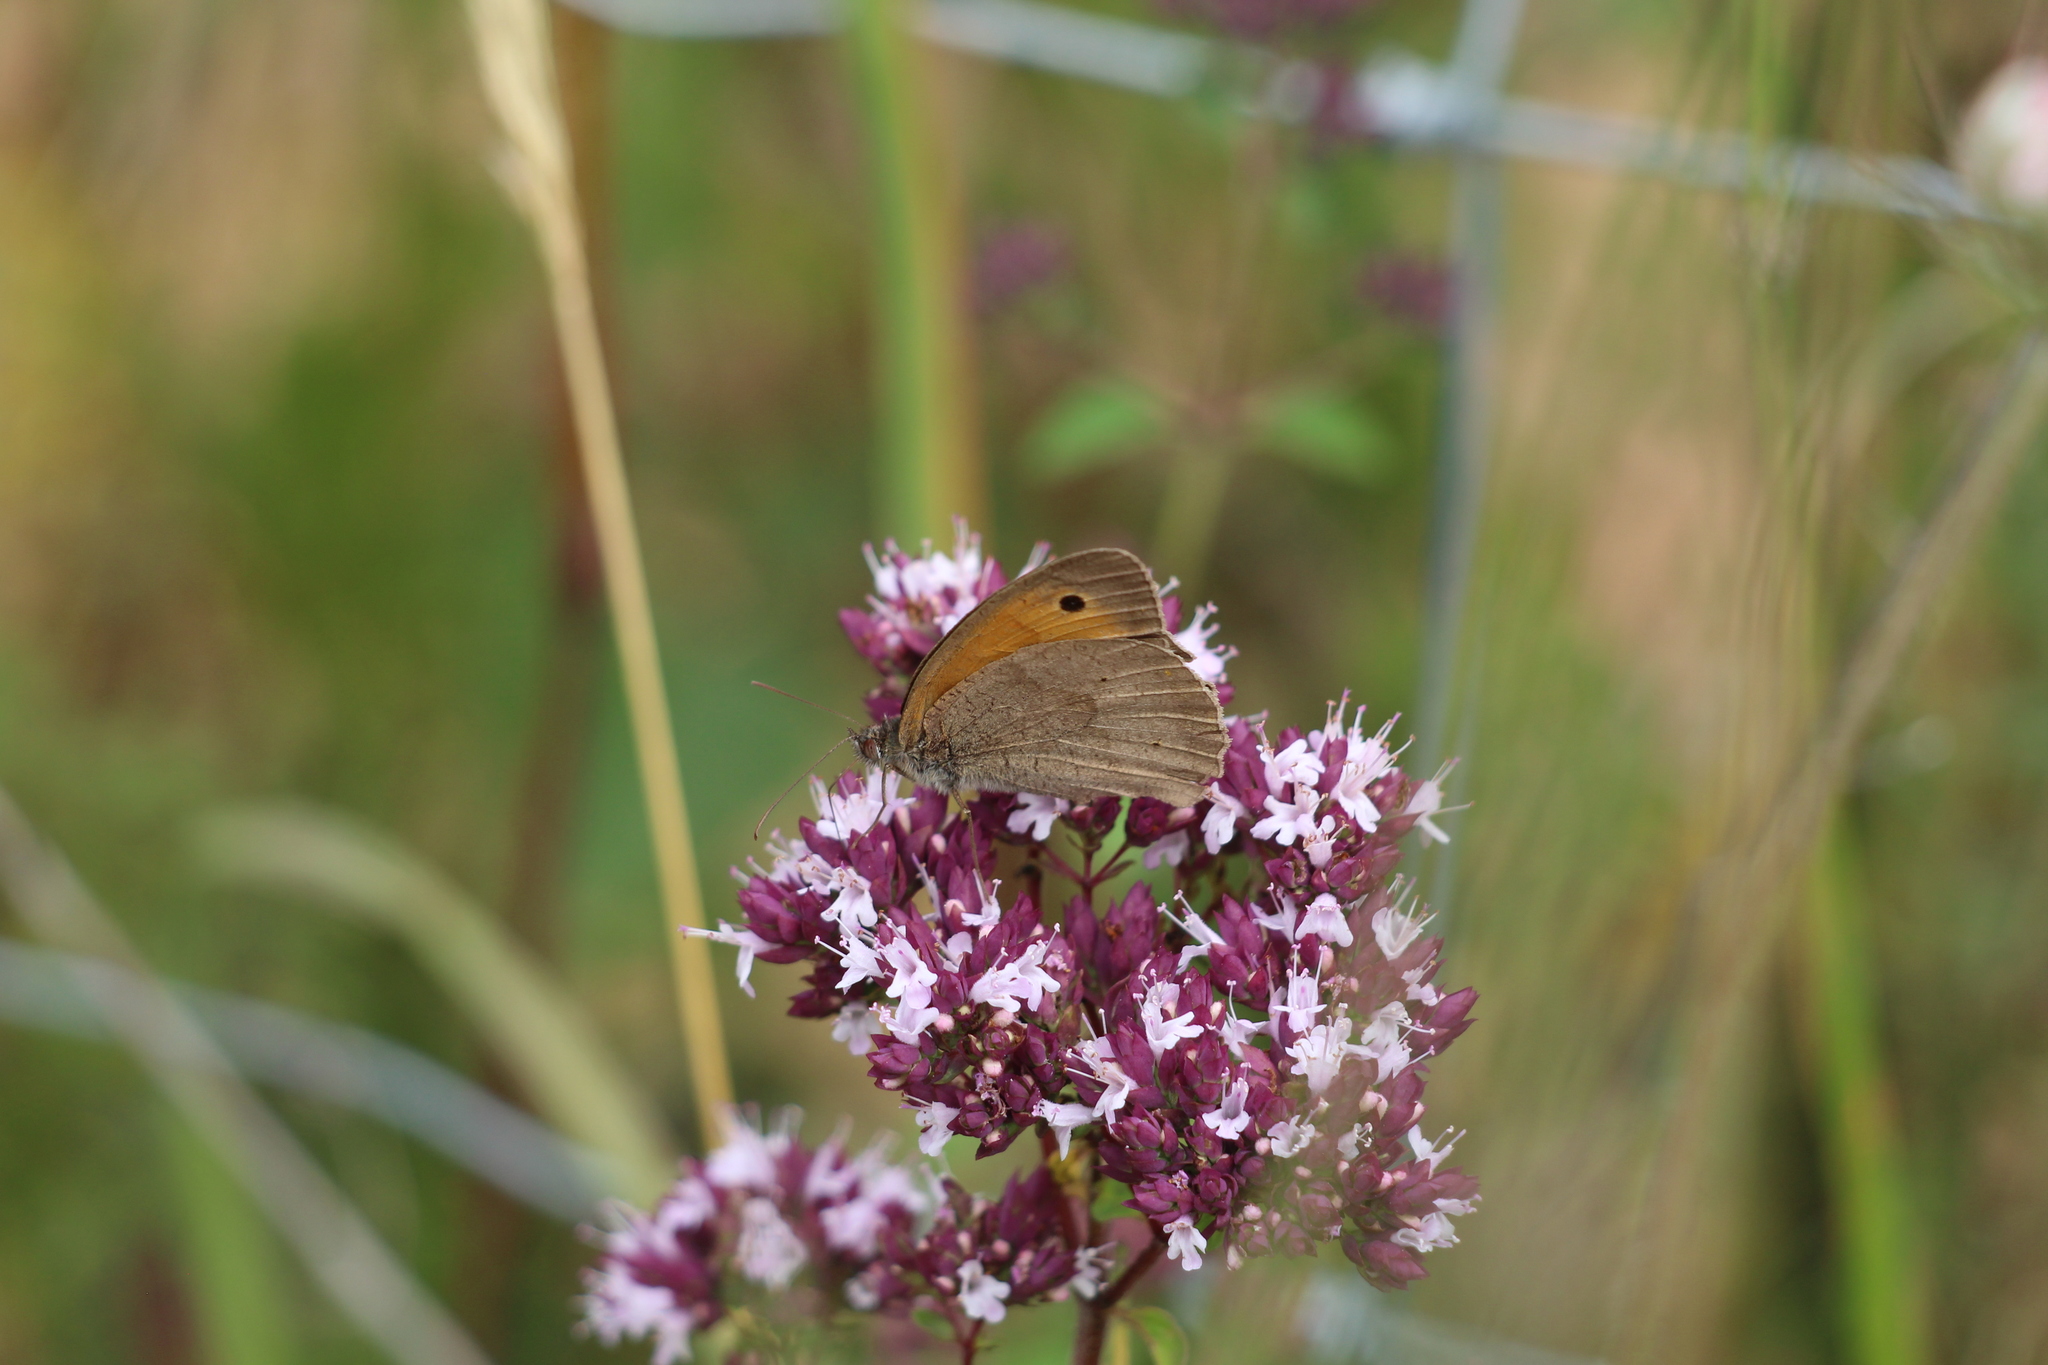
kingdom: Animalia
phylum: Arthropoda
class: Insecta
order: Lepidoptera
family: Nymphalidae
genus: Maniola
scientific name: Maniola jurtina
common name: Meadow brown
